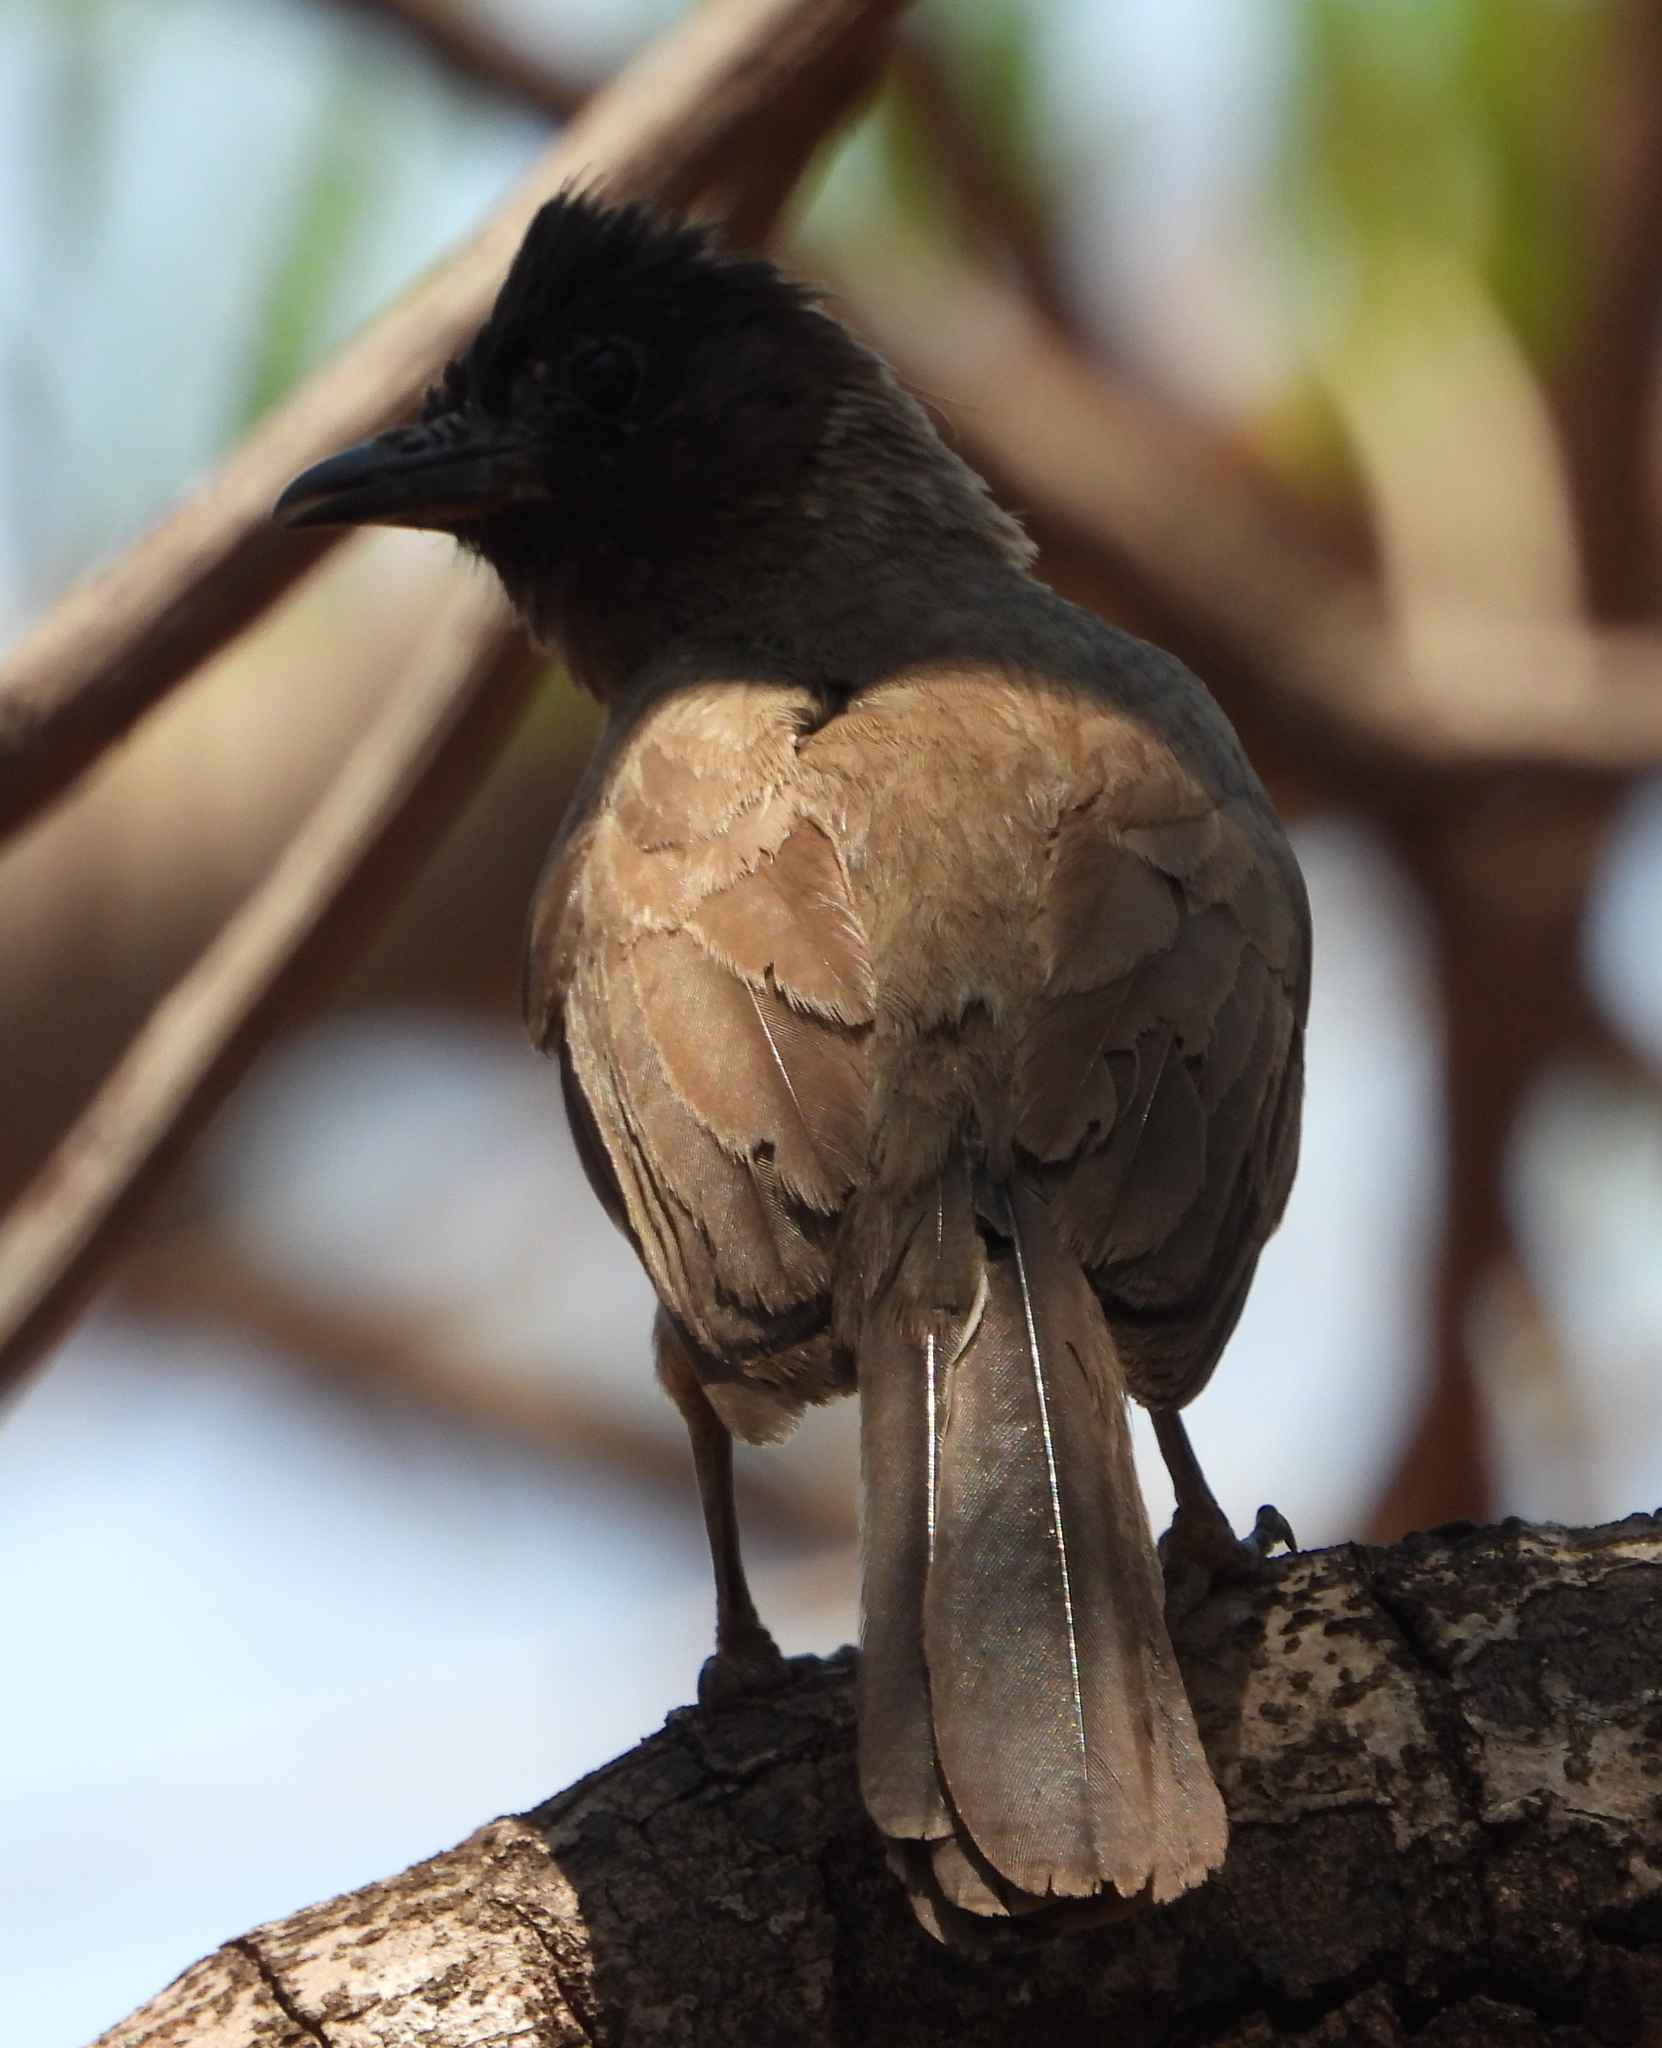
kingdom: Animalia
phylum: Chordata
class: Aves
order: Passeriformes
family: Pycnonotidae
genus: Pycnonotus
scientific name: Pycnonotus barbatus
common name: Common bulbul
